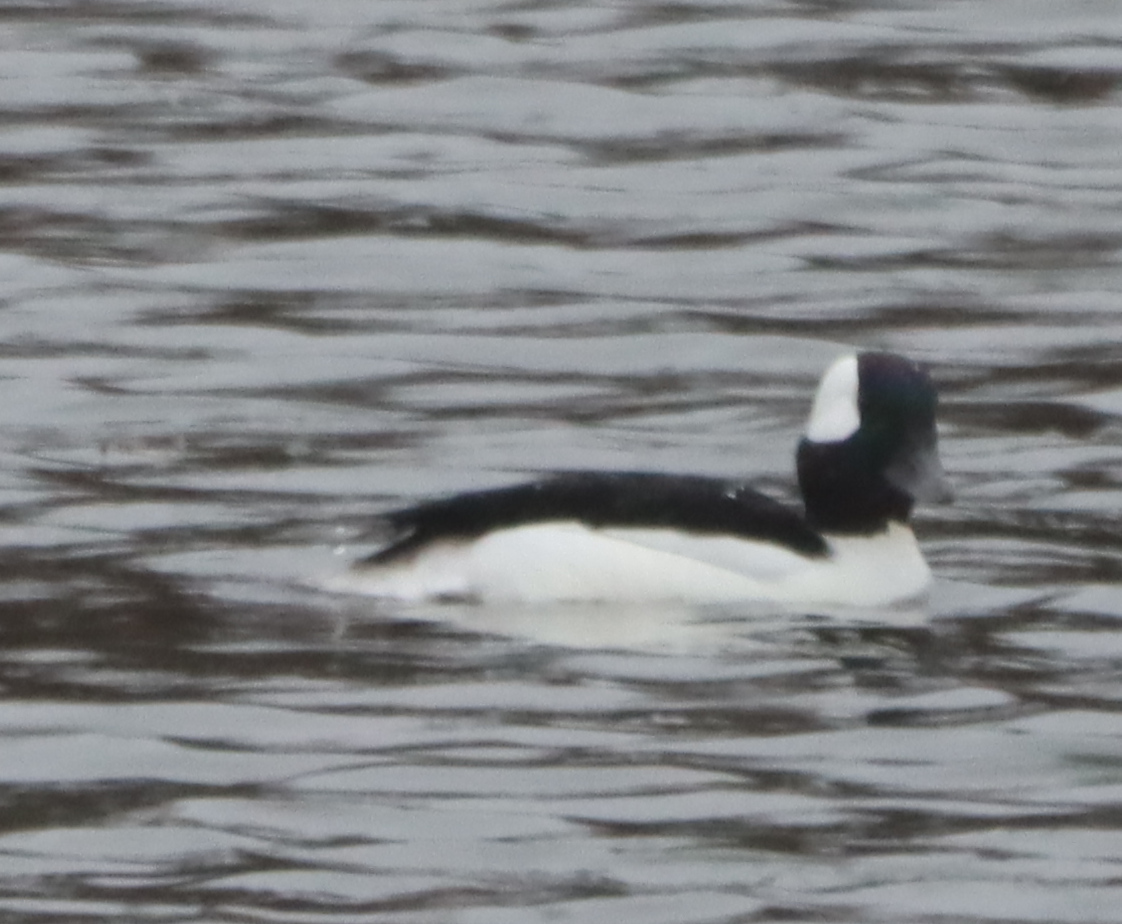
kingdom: Animalia
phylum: Chordata
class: Aves
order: Anseriformes
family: Anatidae
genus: Bucephala
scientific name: Bucephala albeola
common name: Bufflehead
